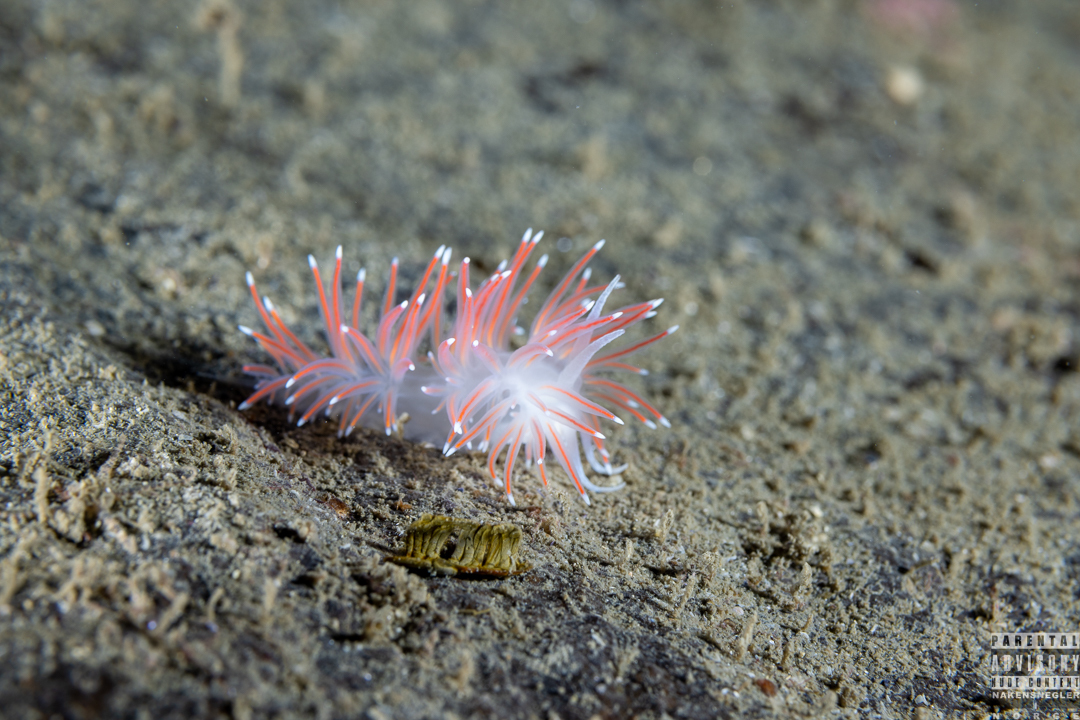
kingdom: Animalia
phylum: Mollusca
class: Gastropoda
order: Nudibranchia
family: Flabellinidae
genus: Carronella
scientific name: Carronella pellucida
